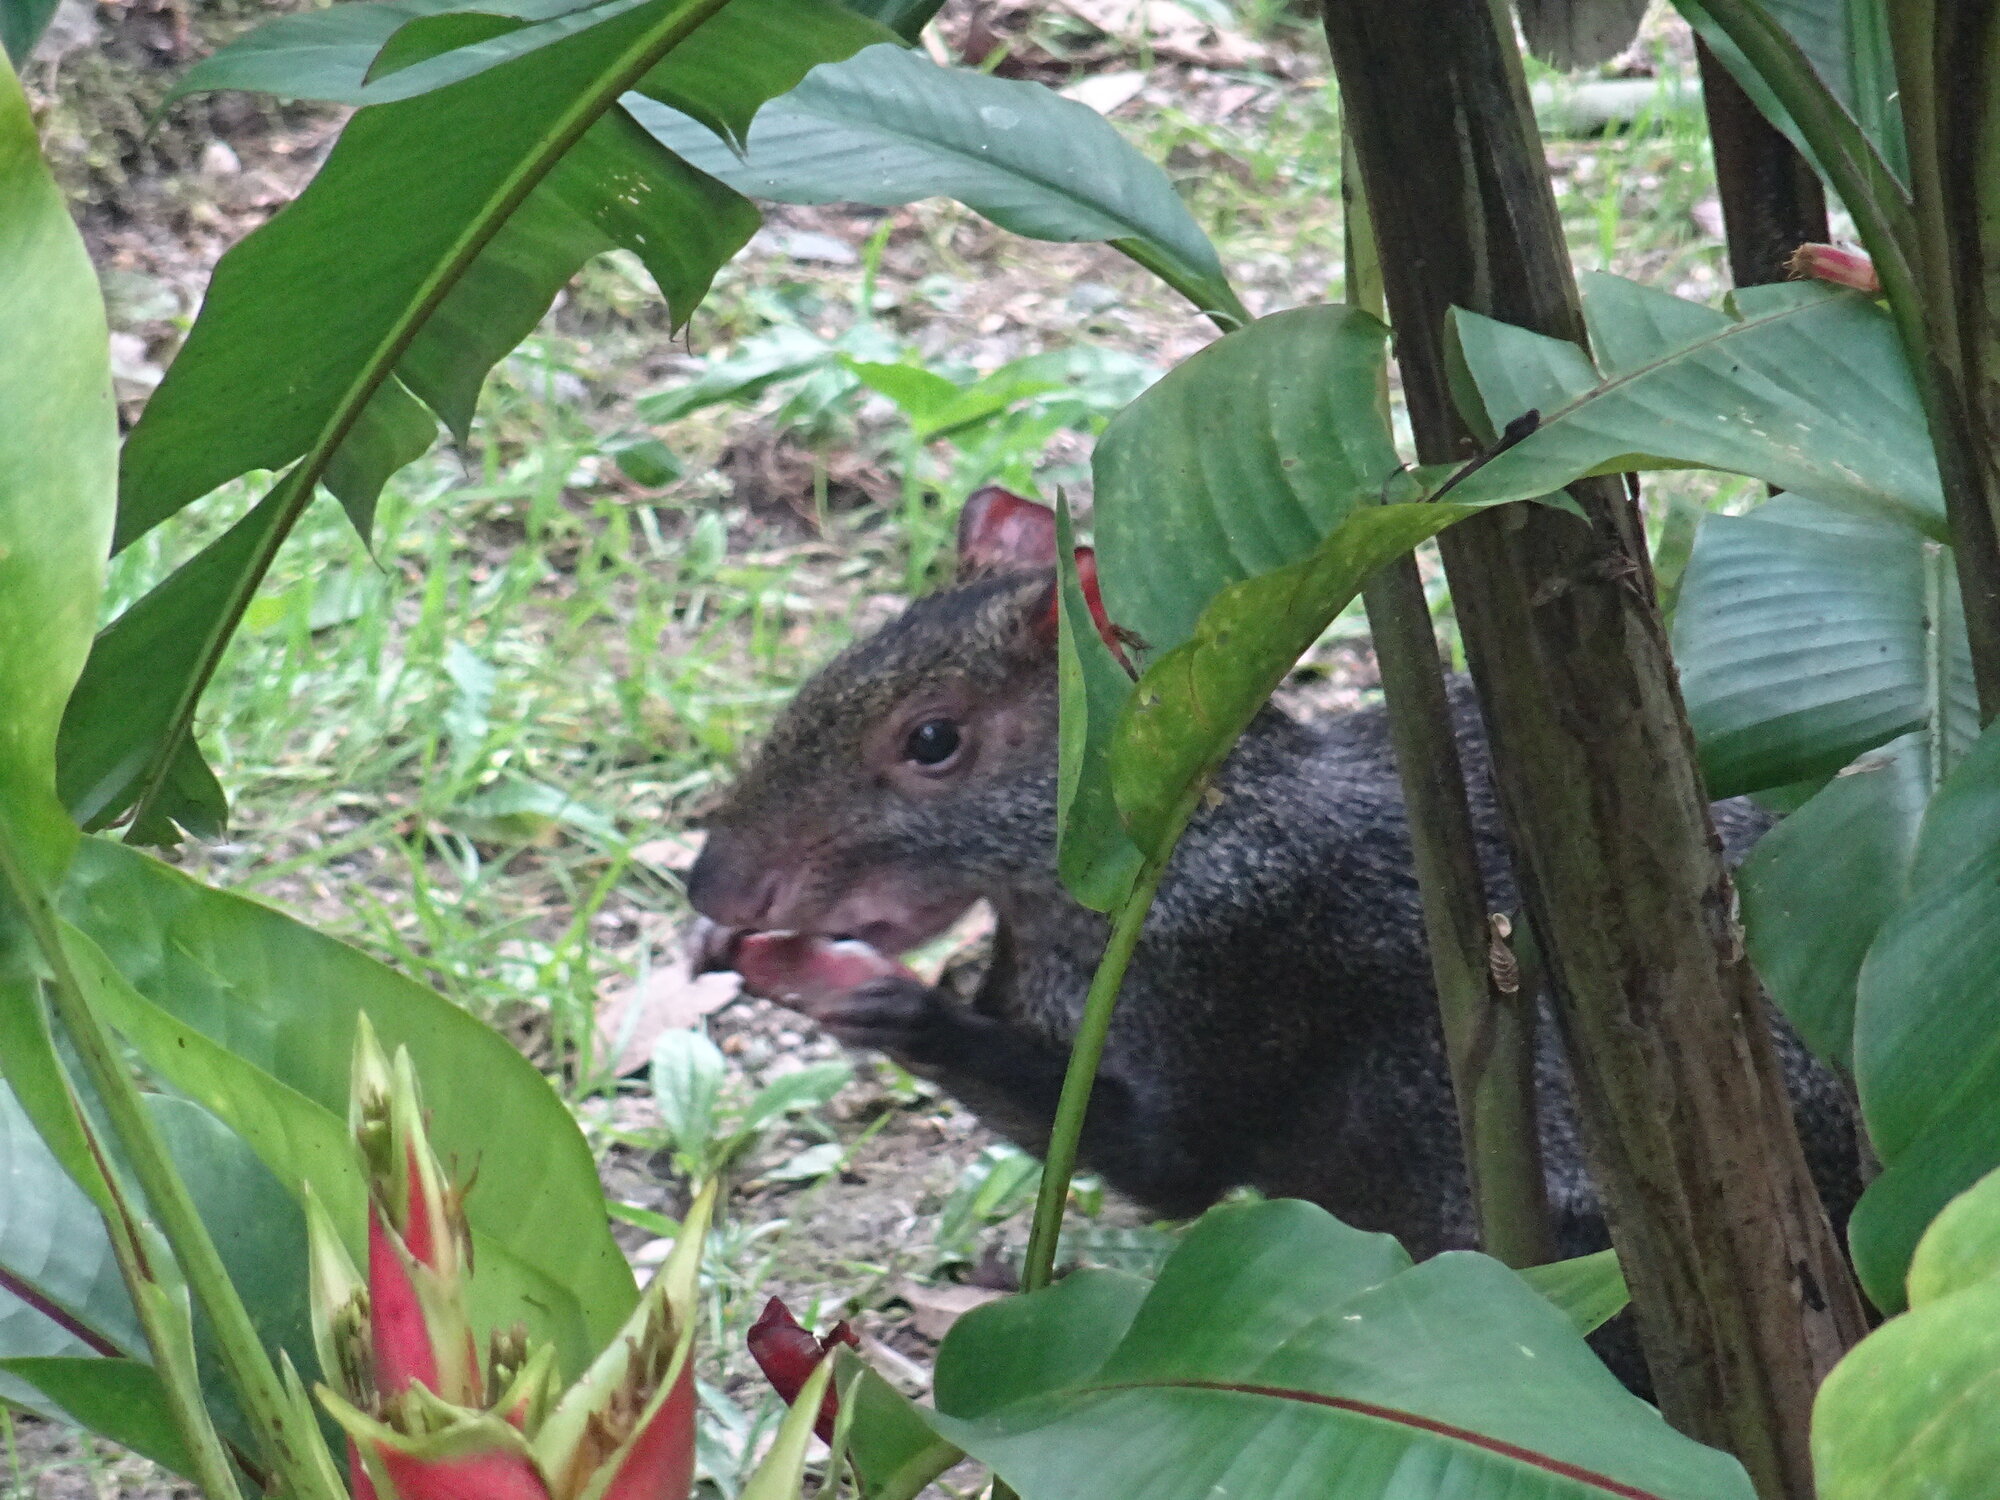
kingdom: Animalia
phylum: Chordata
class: Mammalia
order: Rodentia
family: Dasyproctidae
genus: Dasyprocta
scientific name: Dasyprocta punctata
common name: Central american agouti
